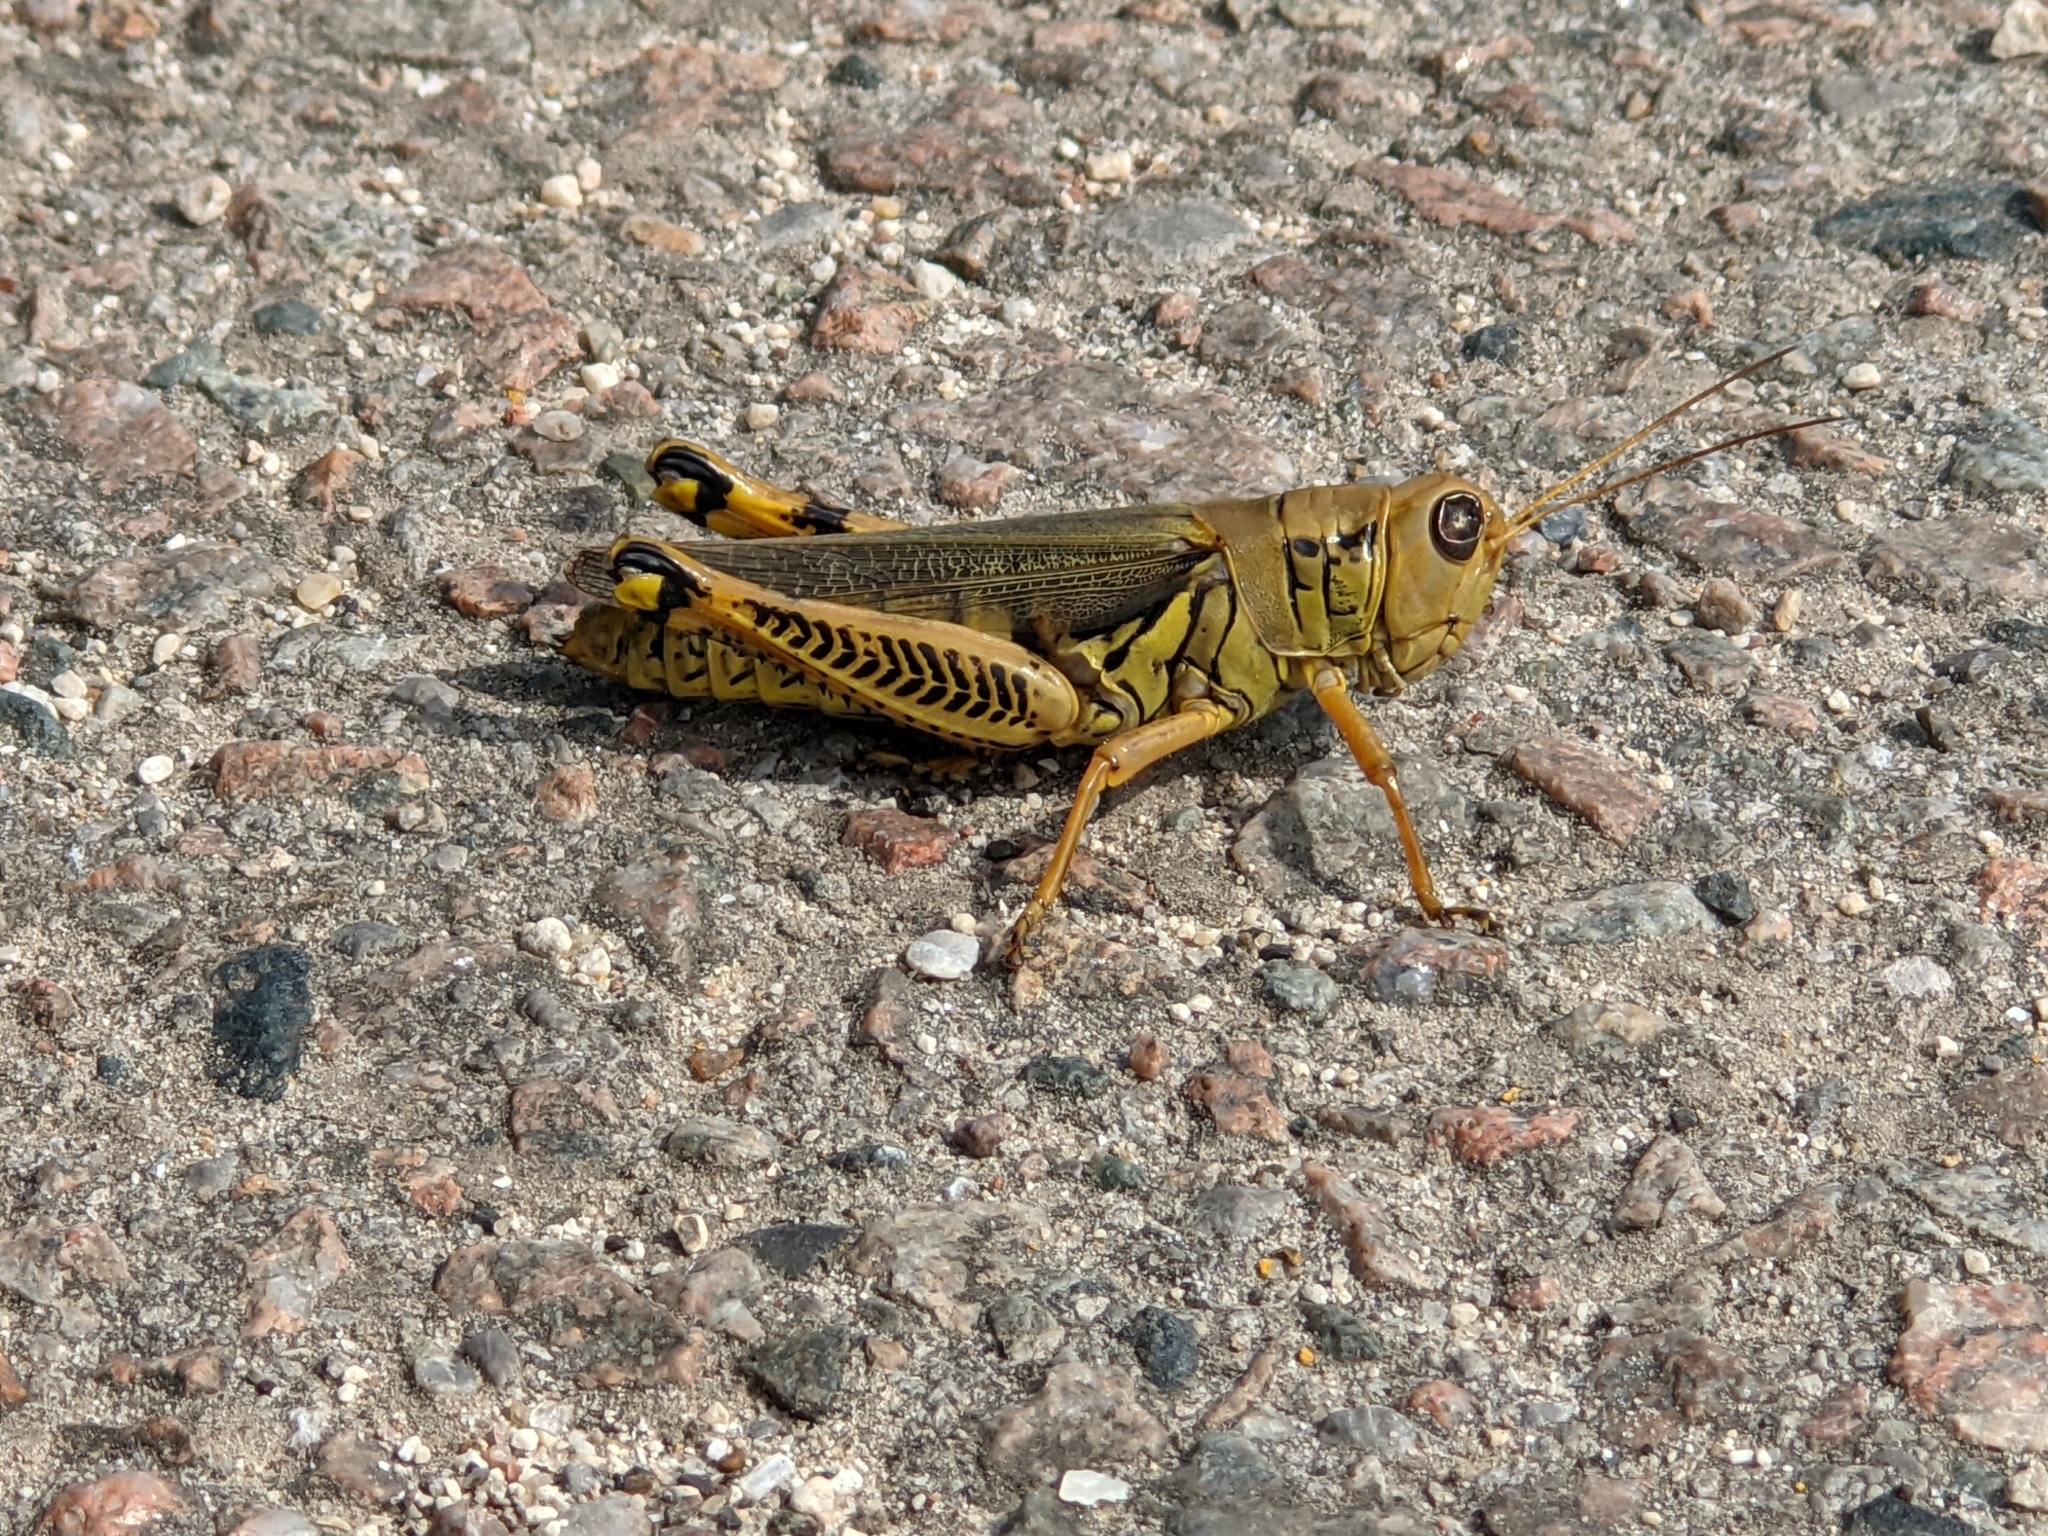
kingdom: Animalia
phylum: Arthropoda
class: Insecta
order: Orthoptera
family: Acrididae
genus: Melanoplus
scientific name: Melanoplus differentialis
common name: Differential grasshopper
